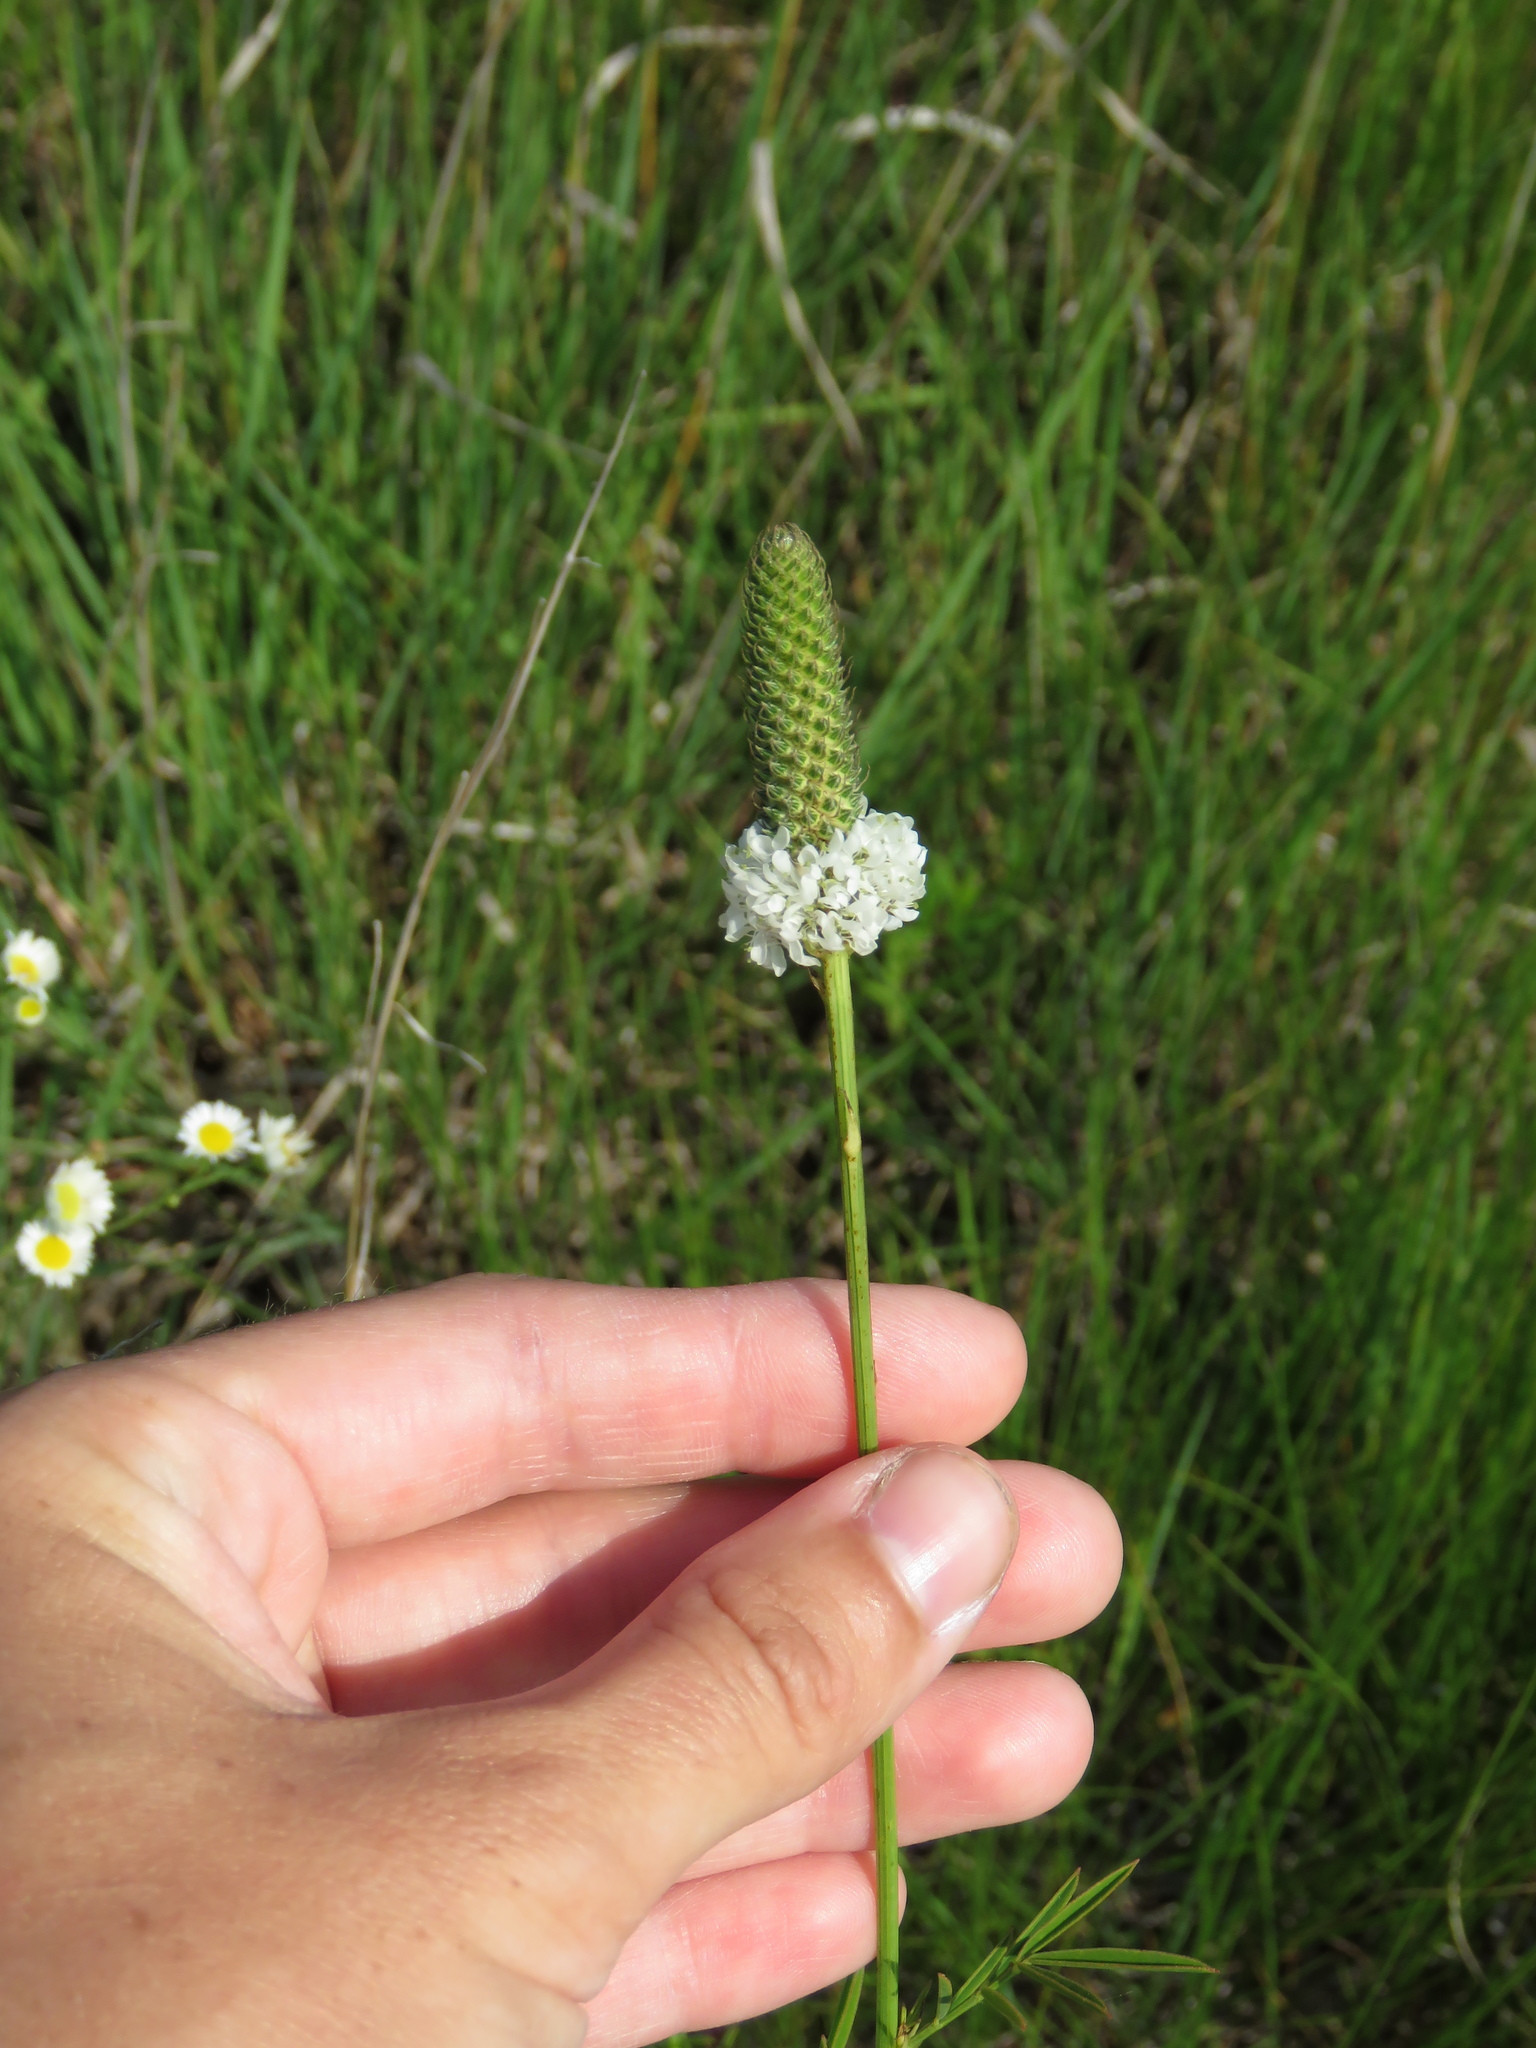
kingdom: Plantae
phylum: Tracheophyta
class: Magnoliopsida
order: Fabales
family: Fabaceae
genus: Dalea
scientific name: Dalea candida
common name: White prairie-clover
